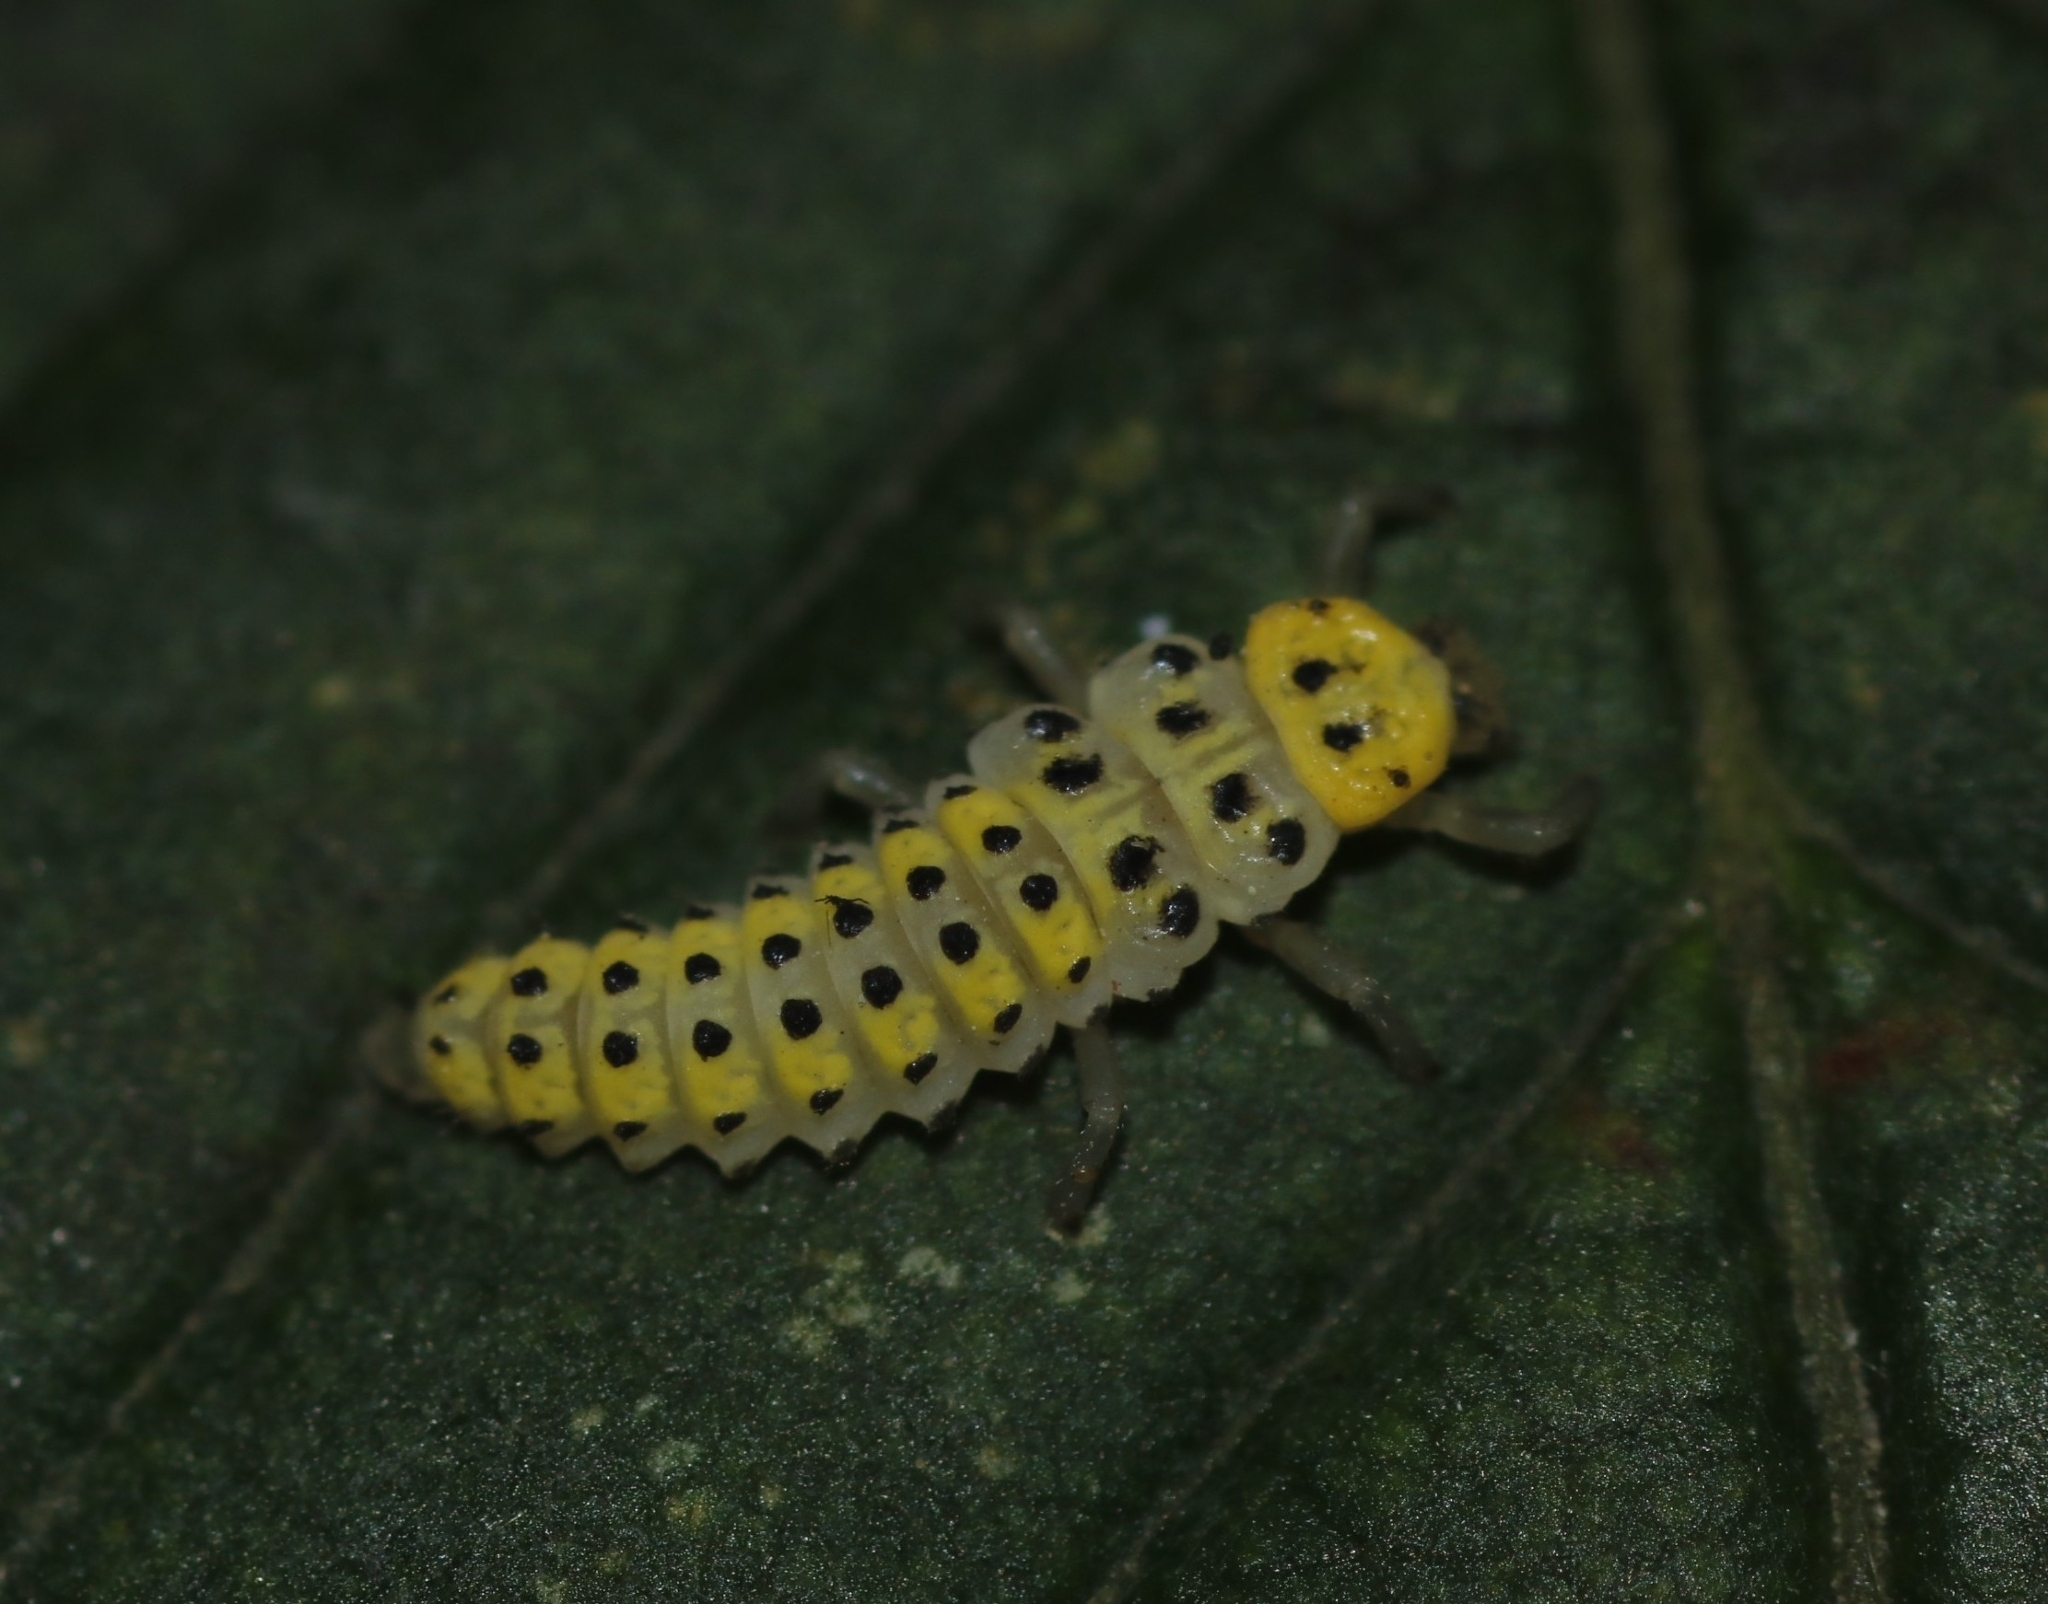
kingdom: Animalia
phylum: Arthropoda
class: Insecta
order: Coleoptera
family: Coccinellidae
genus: Halyzia
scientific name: Halyzia sedecimguttata
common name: Orange ladybird
